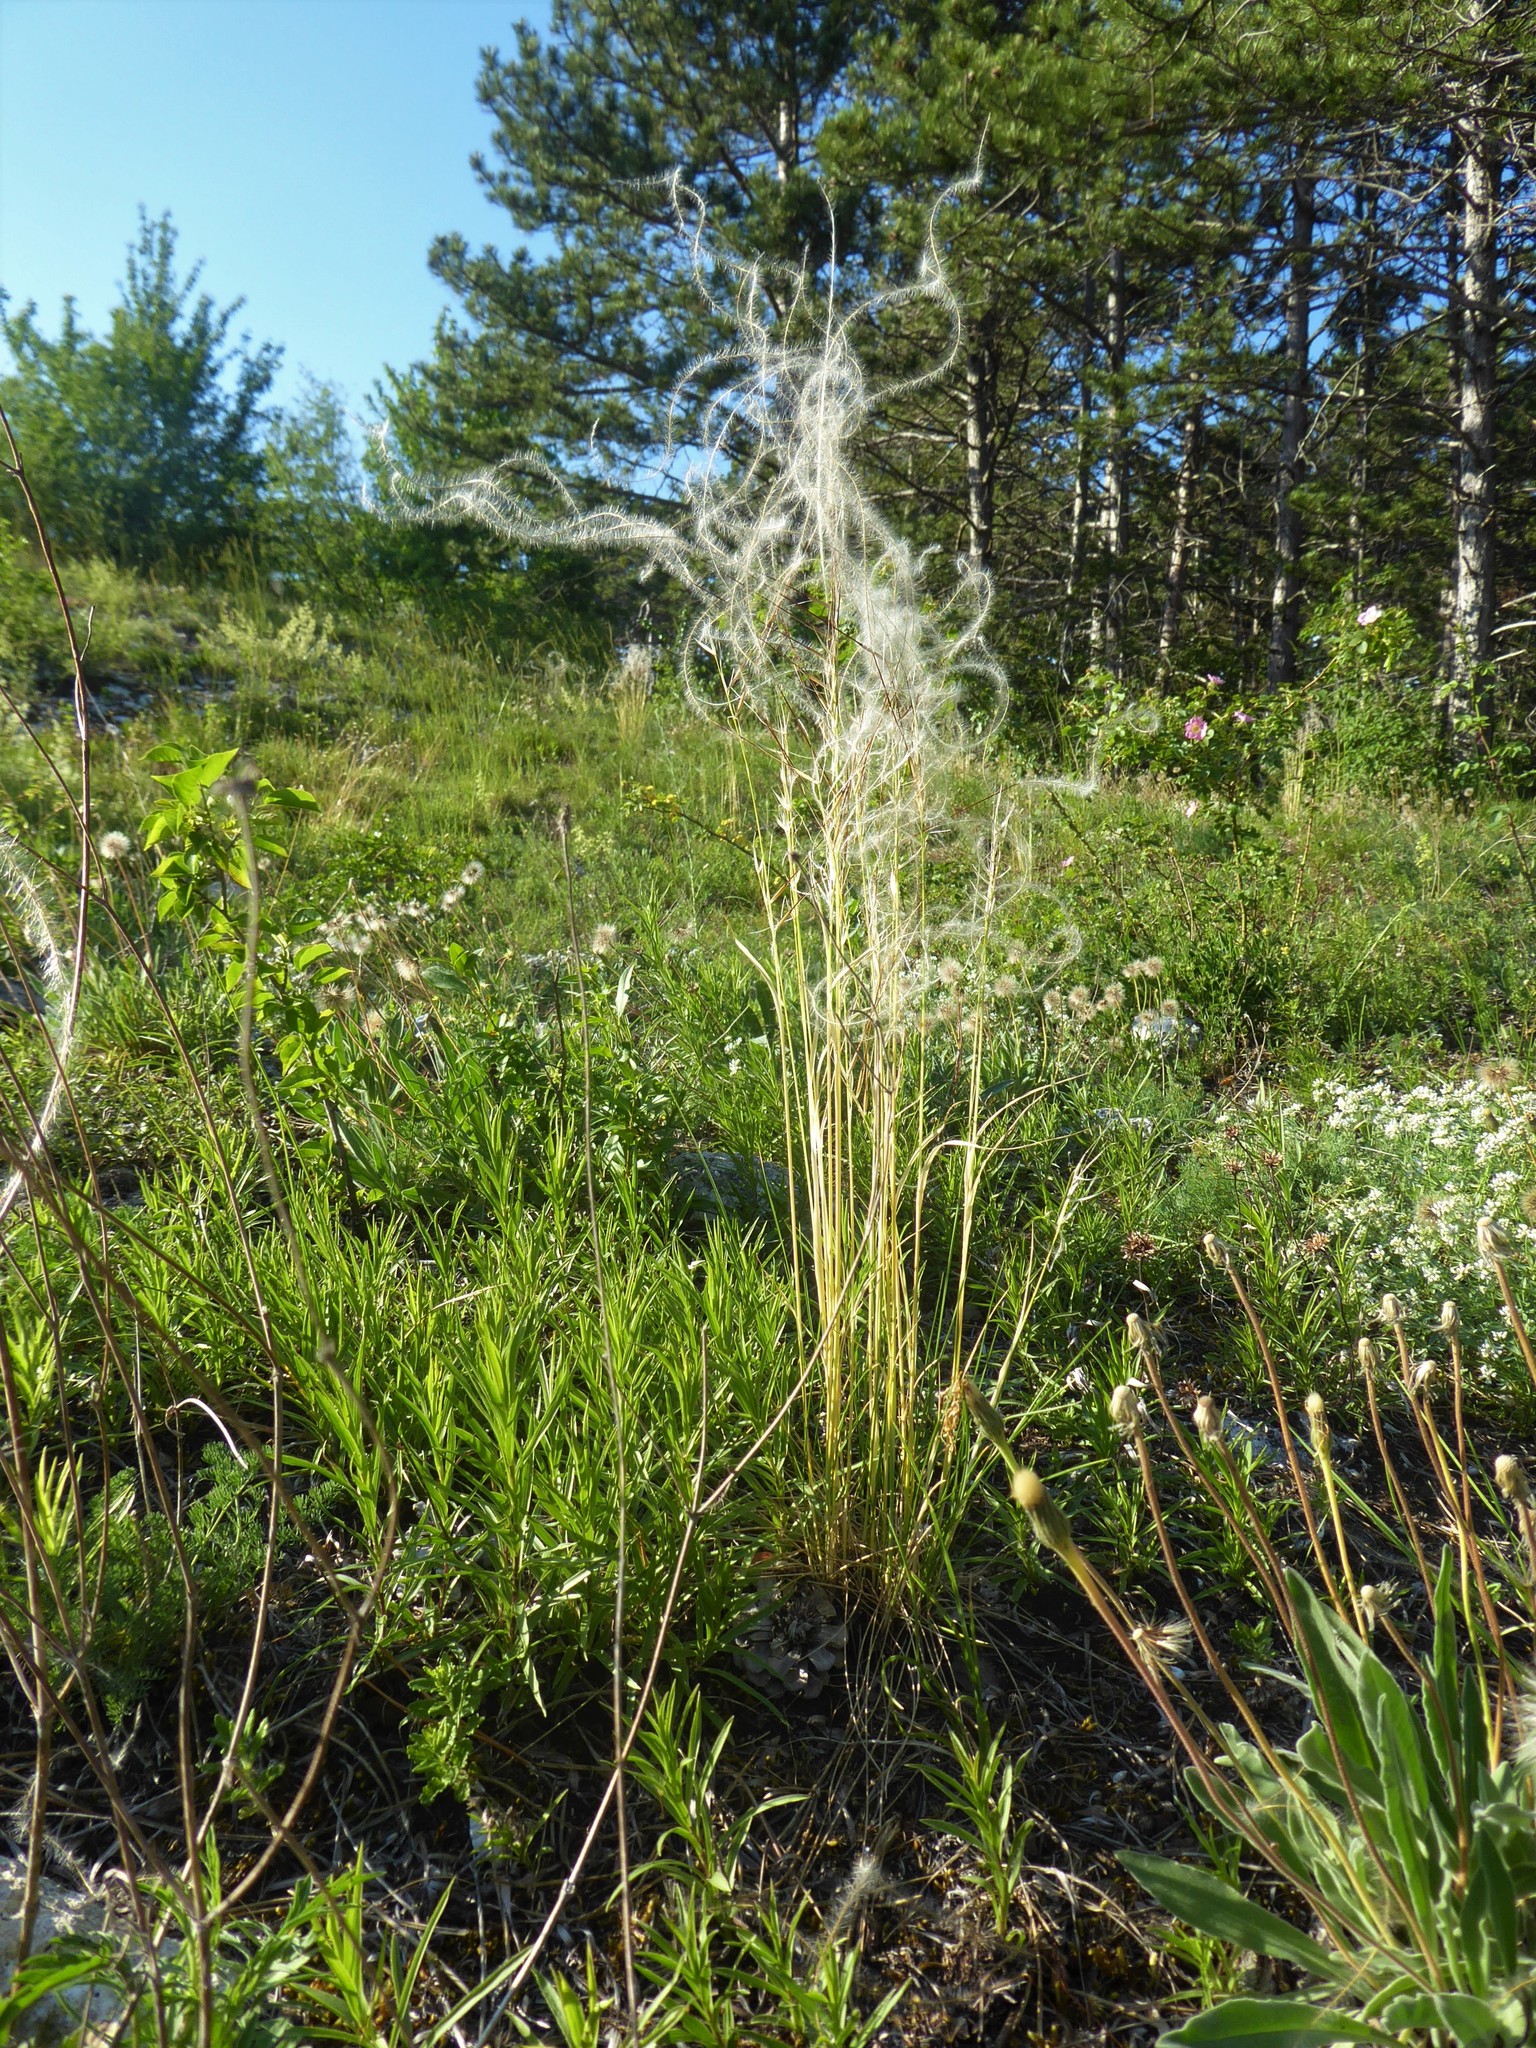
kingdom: Plantae
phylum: Tracheophyta
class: Liliopsida
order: Poales
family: Poaceae
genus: Stipa
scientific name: Stipa pennata
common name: European feather grass
